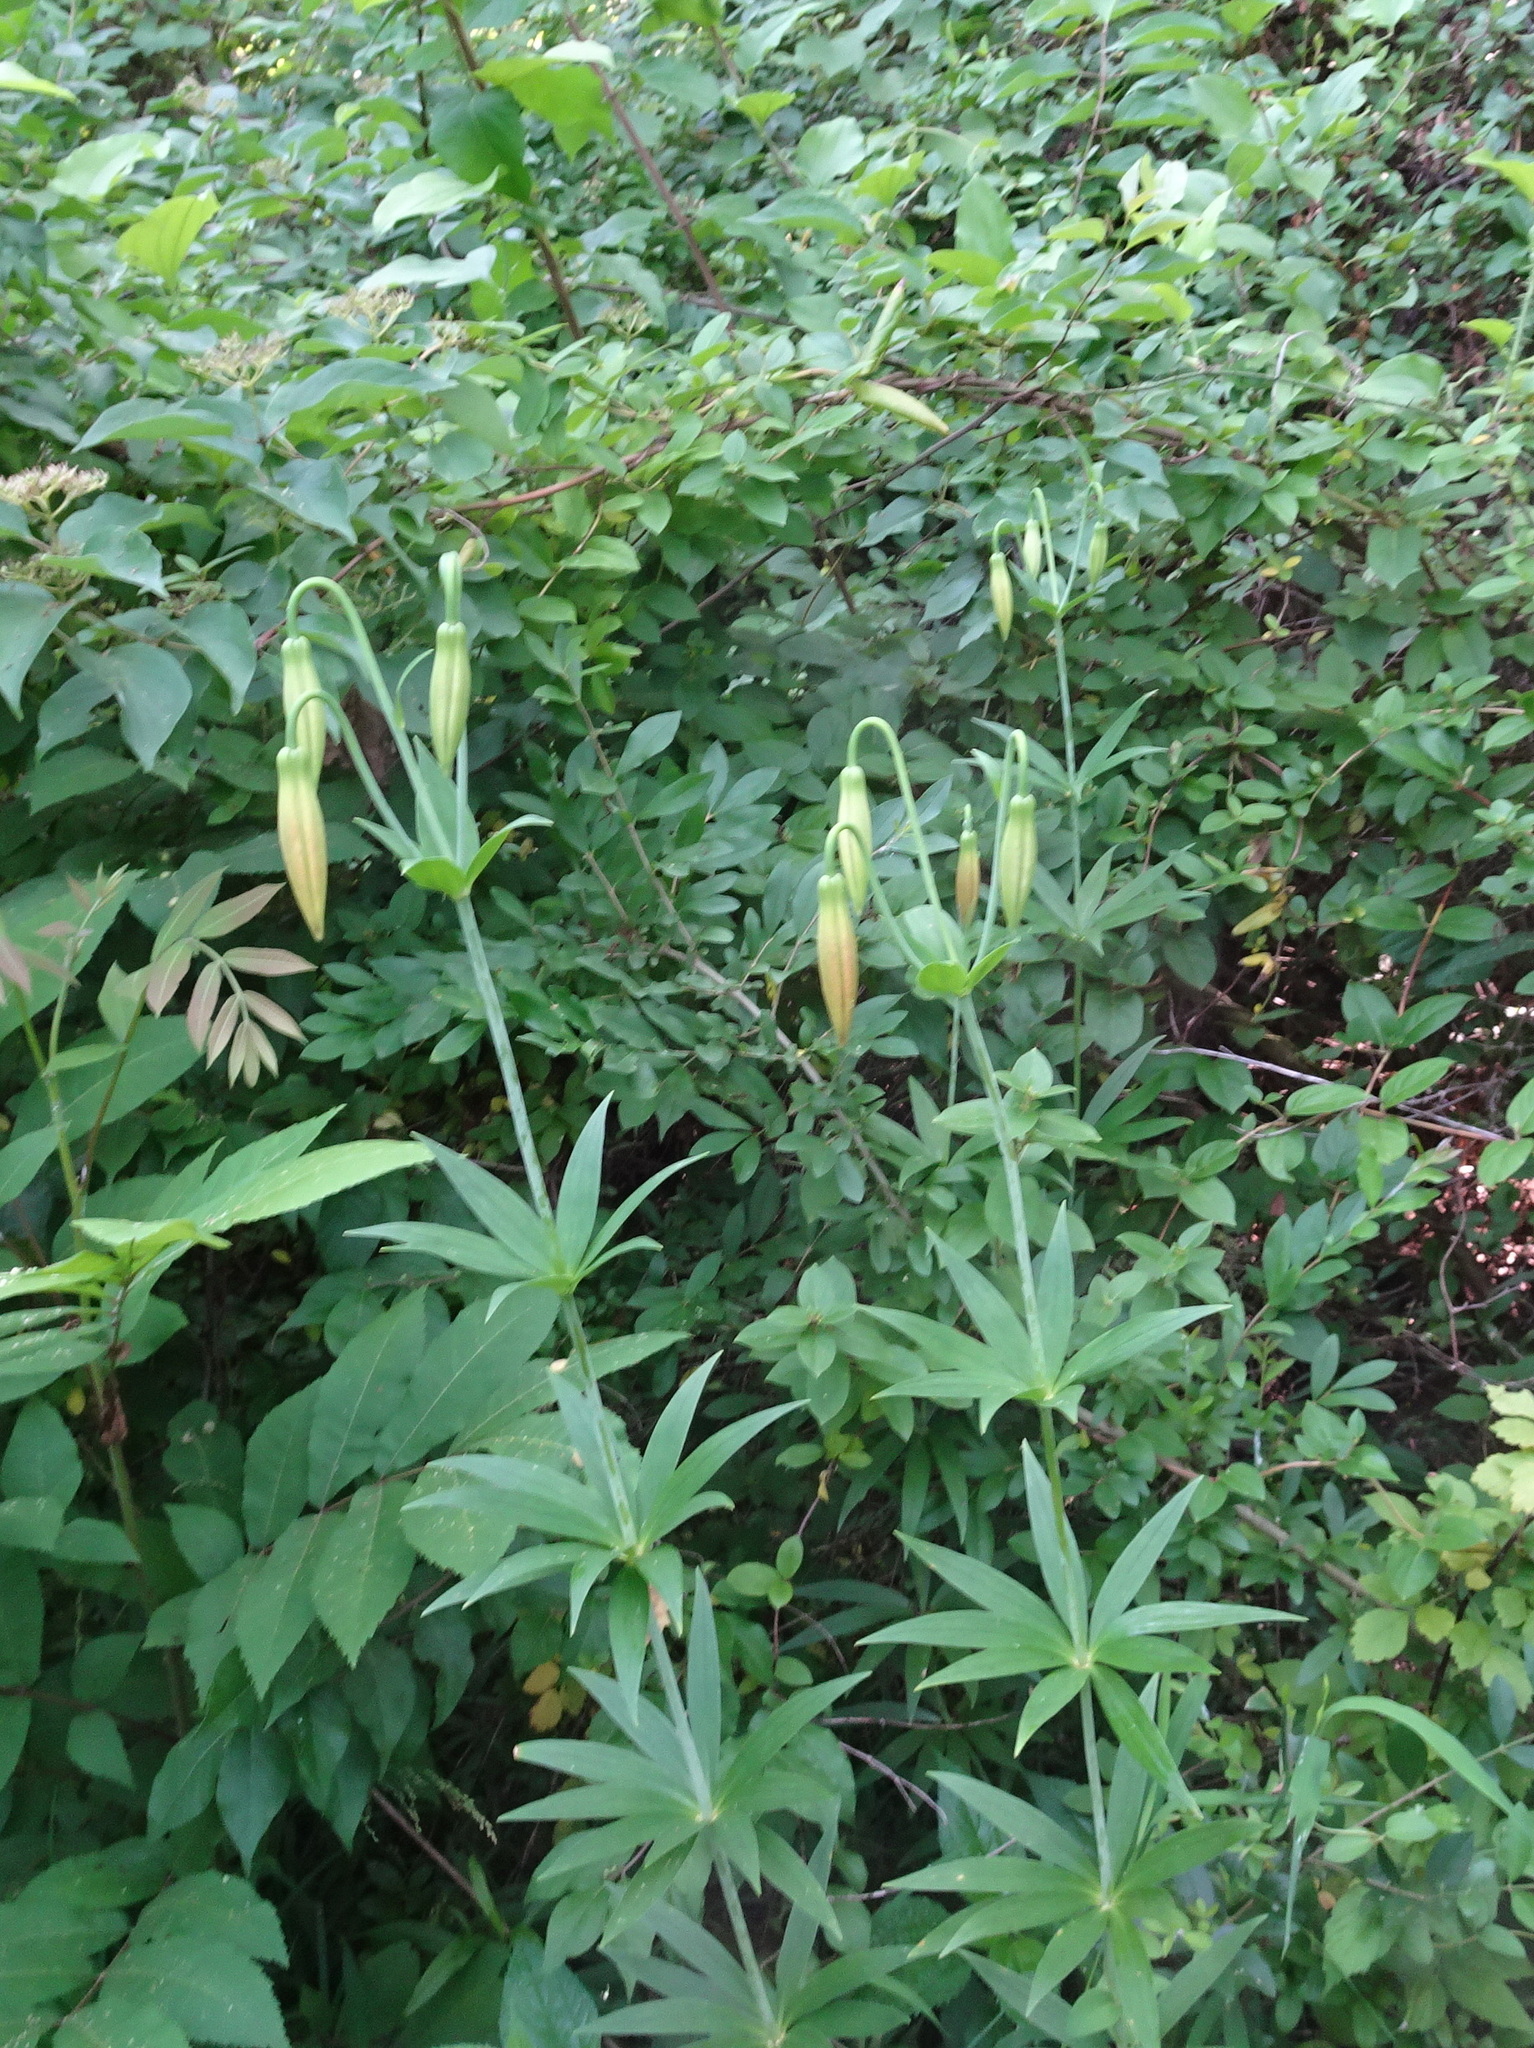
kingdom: Plantae
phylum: Tracheophyta
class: Liliopsida
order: Liliales
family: Liliaceae
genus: Lilium
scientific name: Lilium michiganense
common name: Michigan lily
